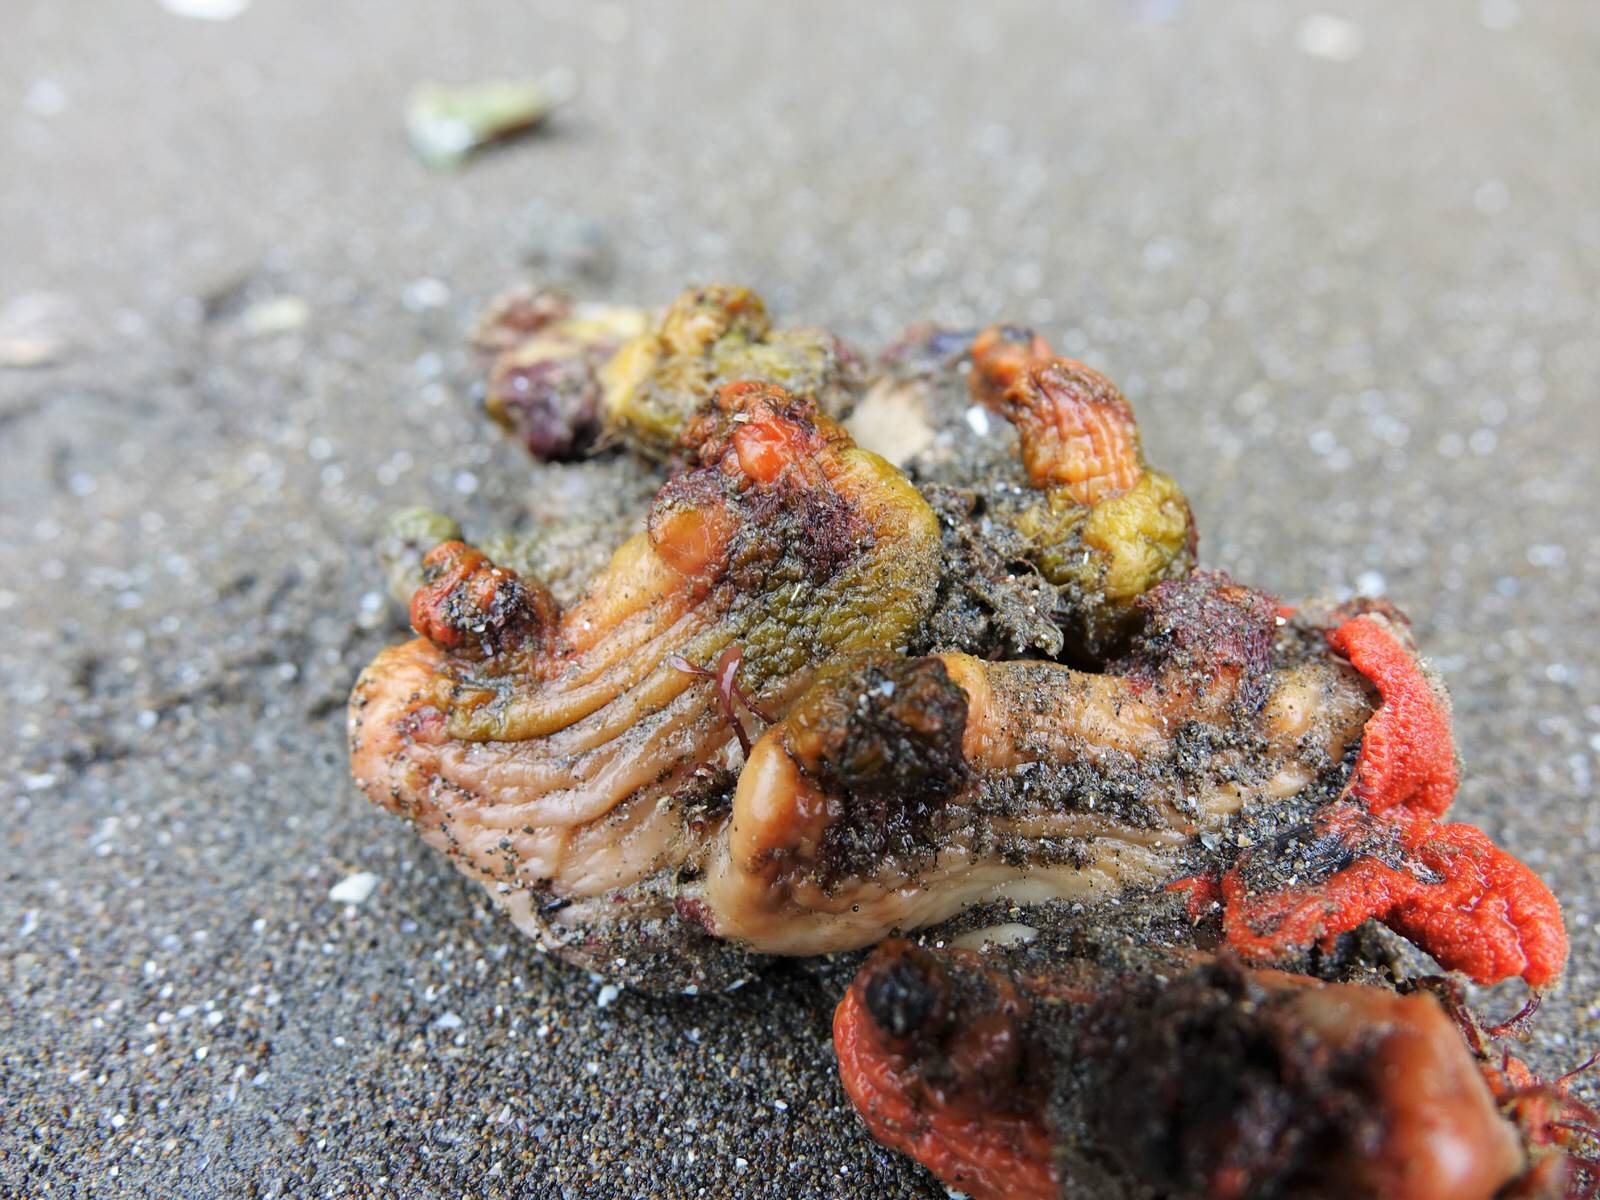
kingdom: Animalia
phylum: Chordata
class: Ascidiacea
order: Stolidobranchia
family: Styelidae
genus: Cnemidocarpa
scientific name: Cnemidocarpa bicornuta
